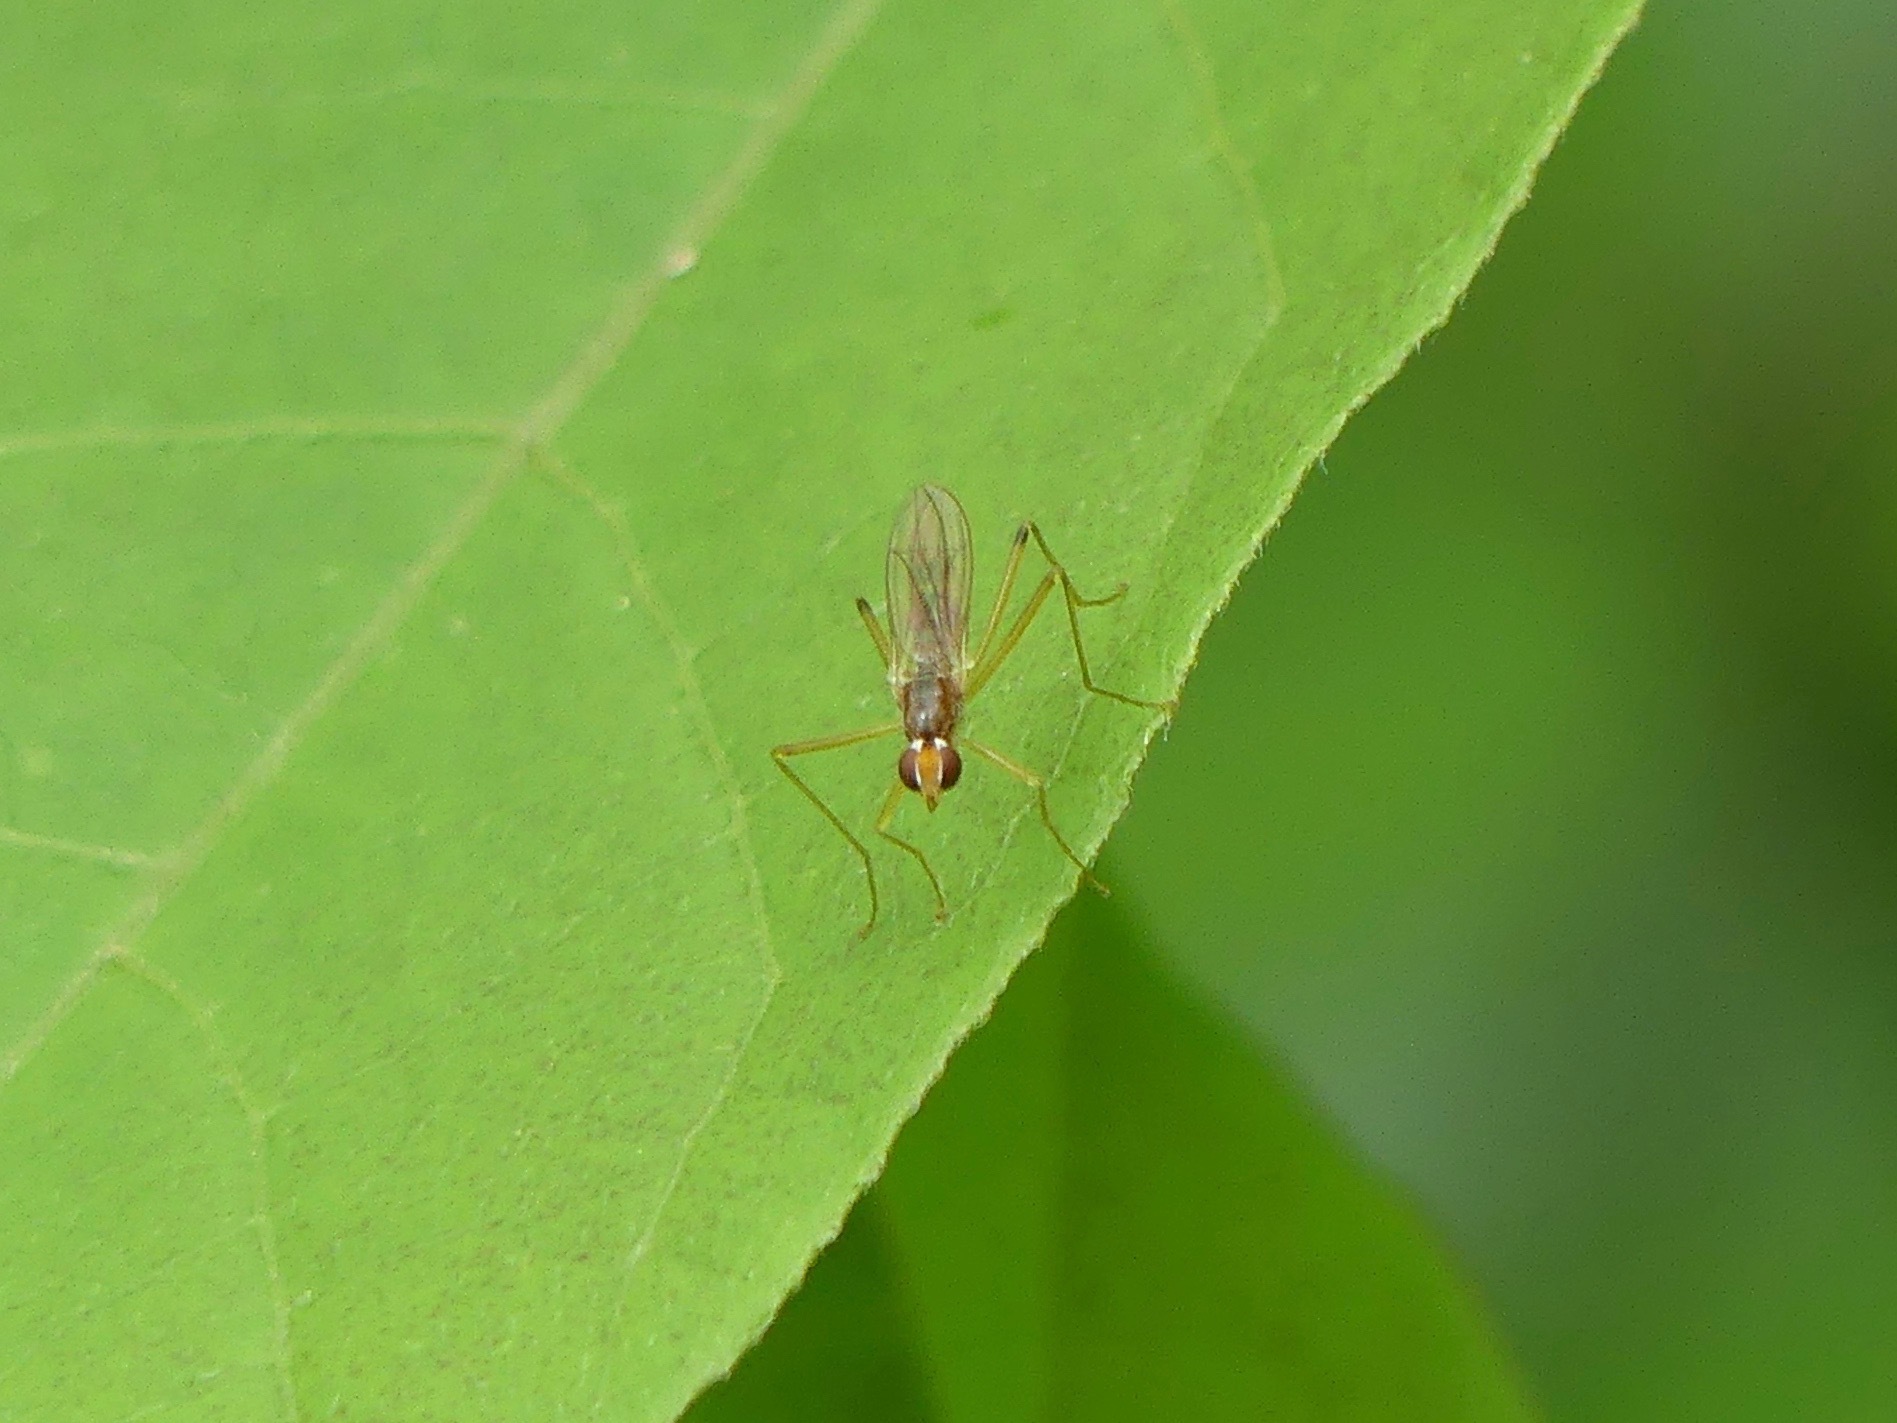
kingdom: Animalia
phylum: Arthropoda
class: Insecta
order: Diptera
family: Micropezidae
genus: Compsobata
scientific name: Compsobata univitta
